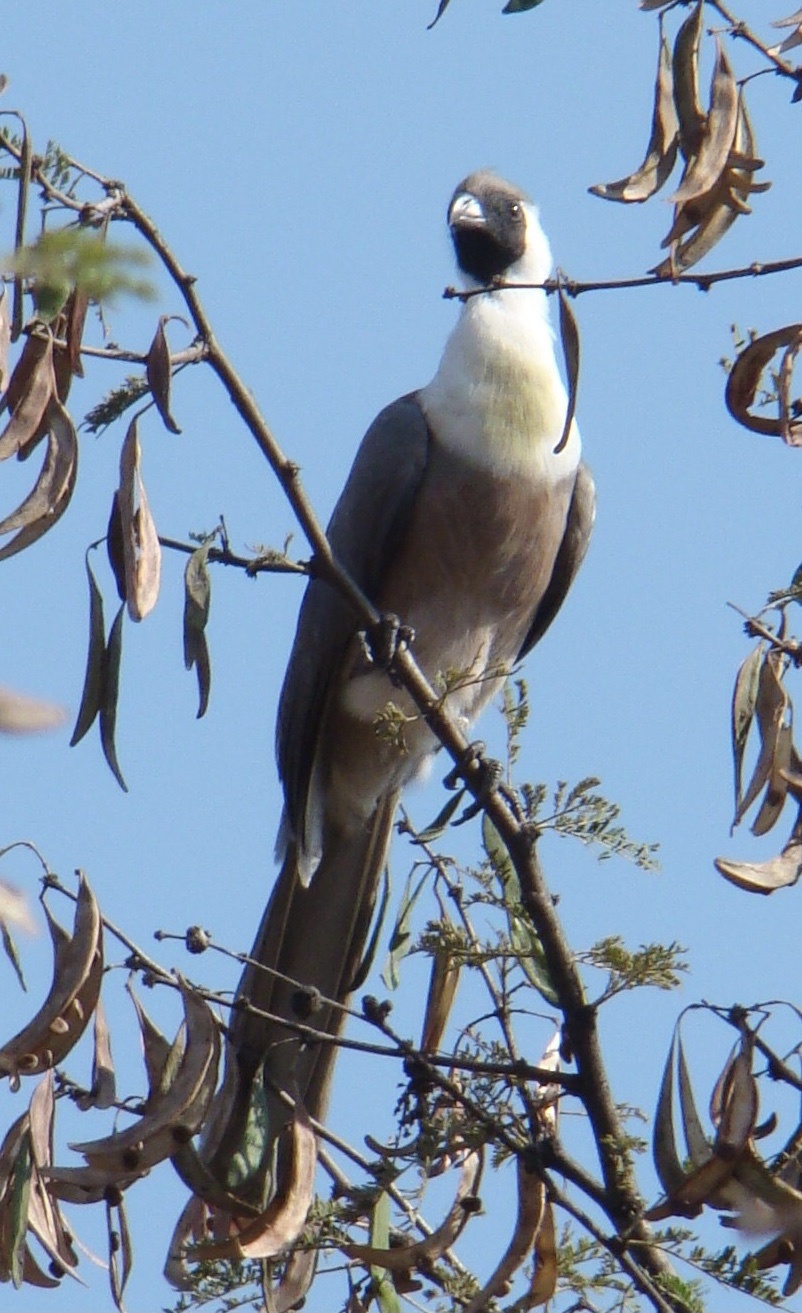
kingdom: Animalia
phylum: Chordata
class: Aves
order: Musophagiformes
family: Musophagidae
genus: Corythaixoides
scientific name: Corythaixoides personatus
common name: Bare-faced go-away-bird
